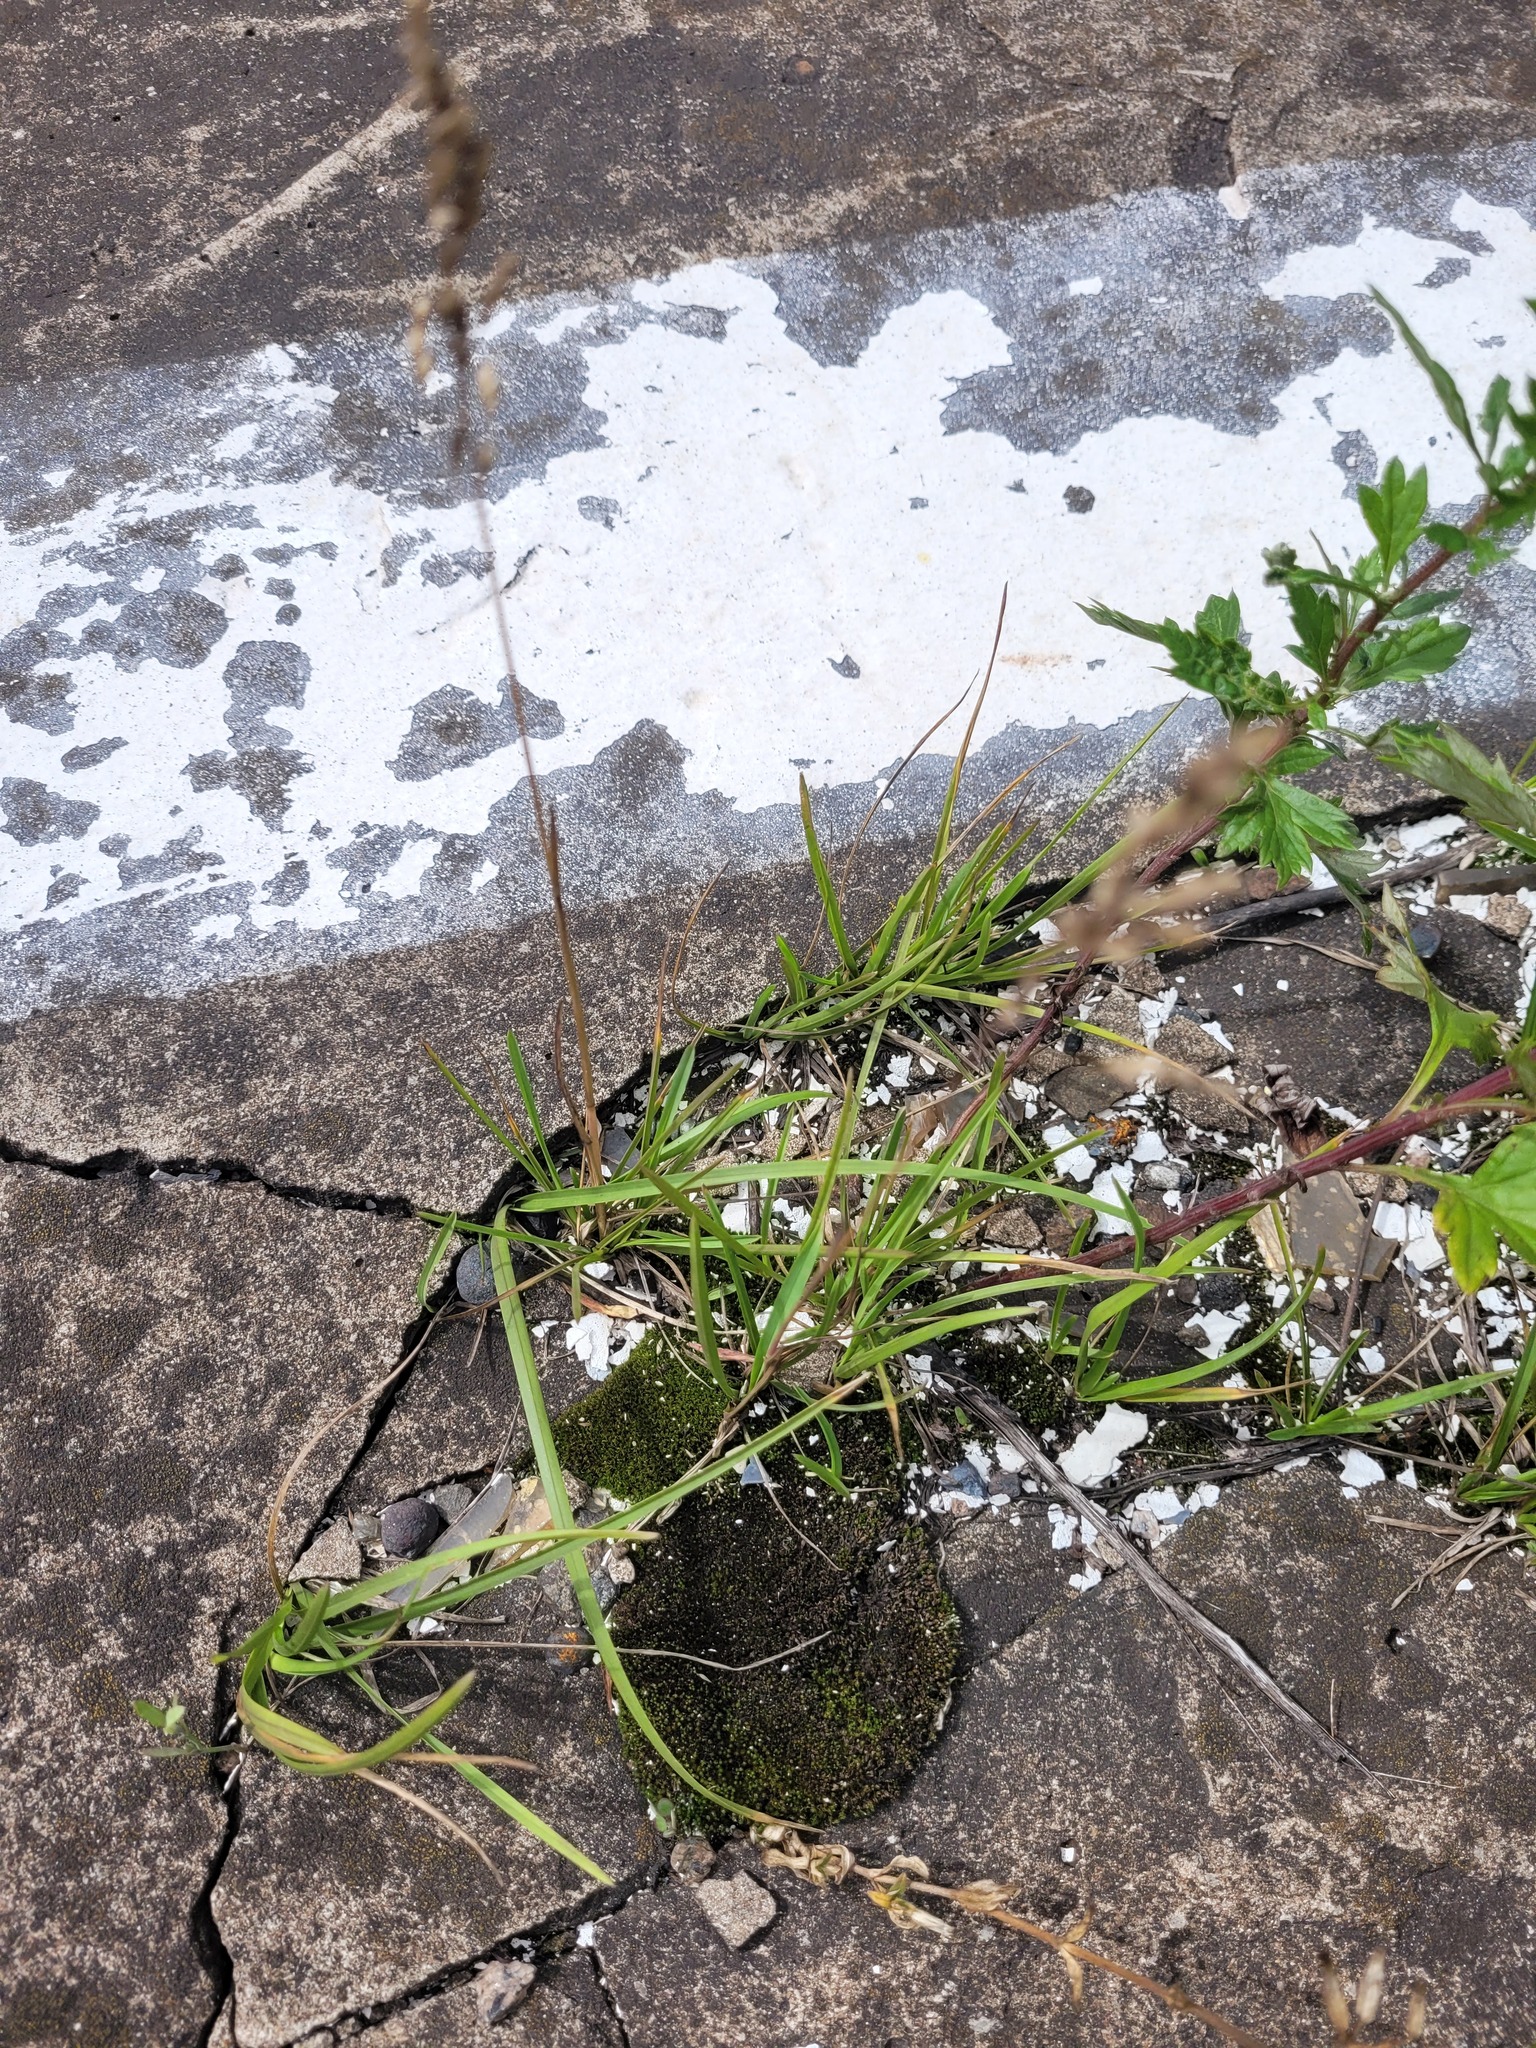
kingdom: Plantae
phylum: Tracheophyta
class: Liliopsida
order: Poales
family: Poaceae
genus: Poa
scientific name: Poa pratensis
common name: Kentucky bluegrass
